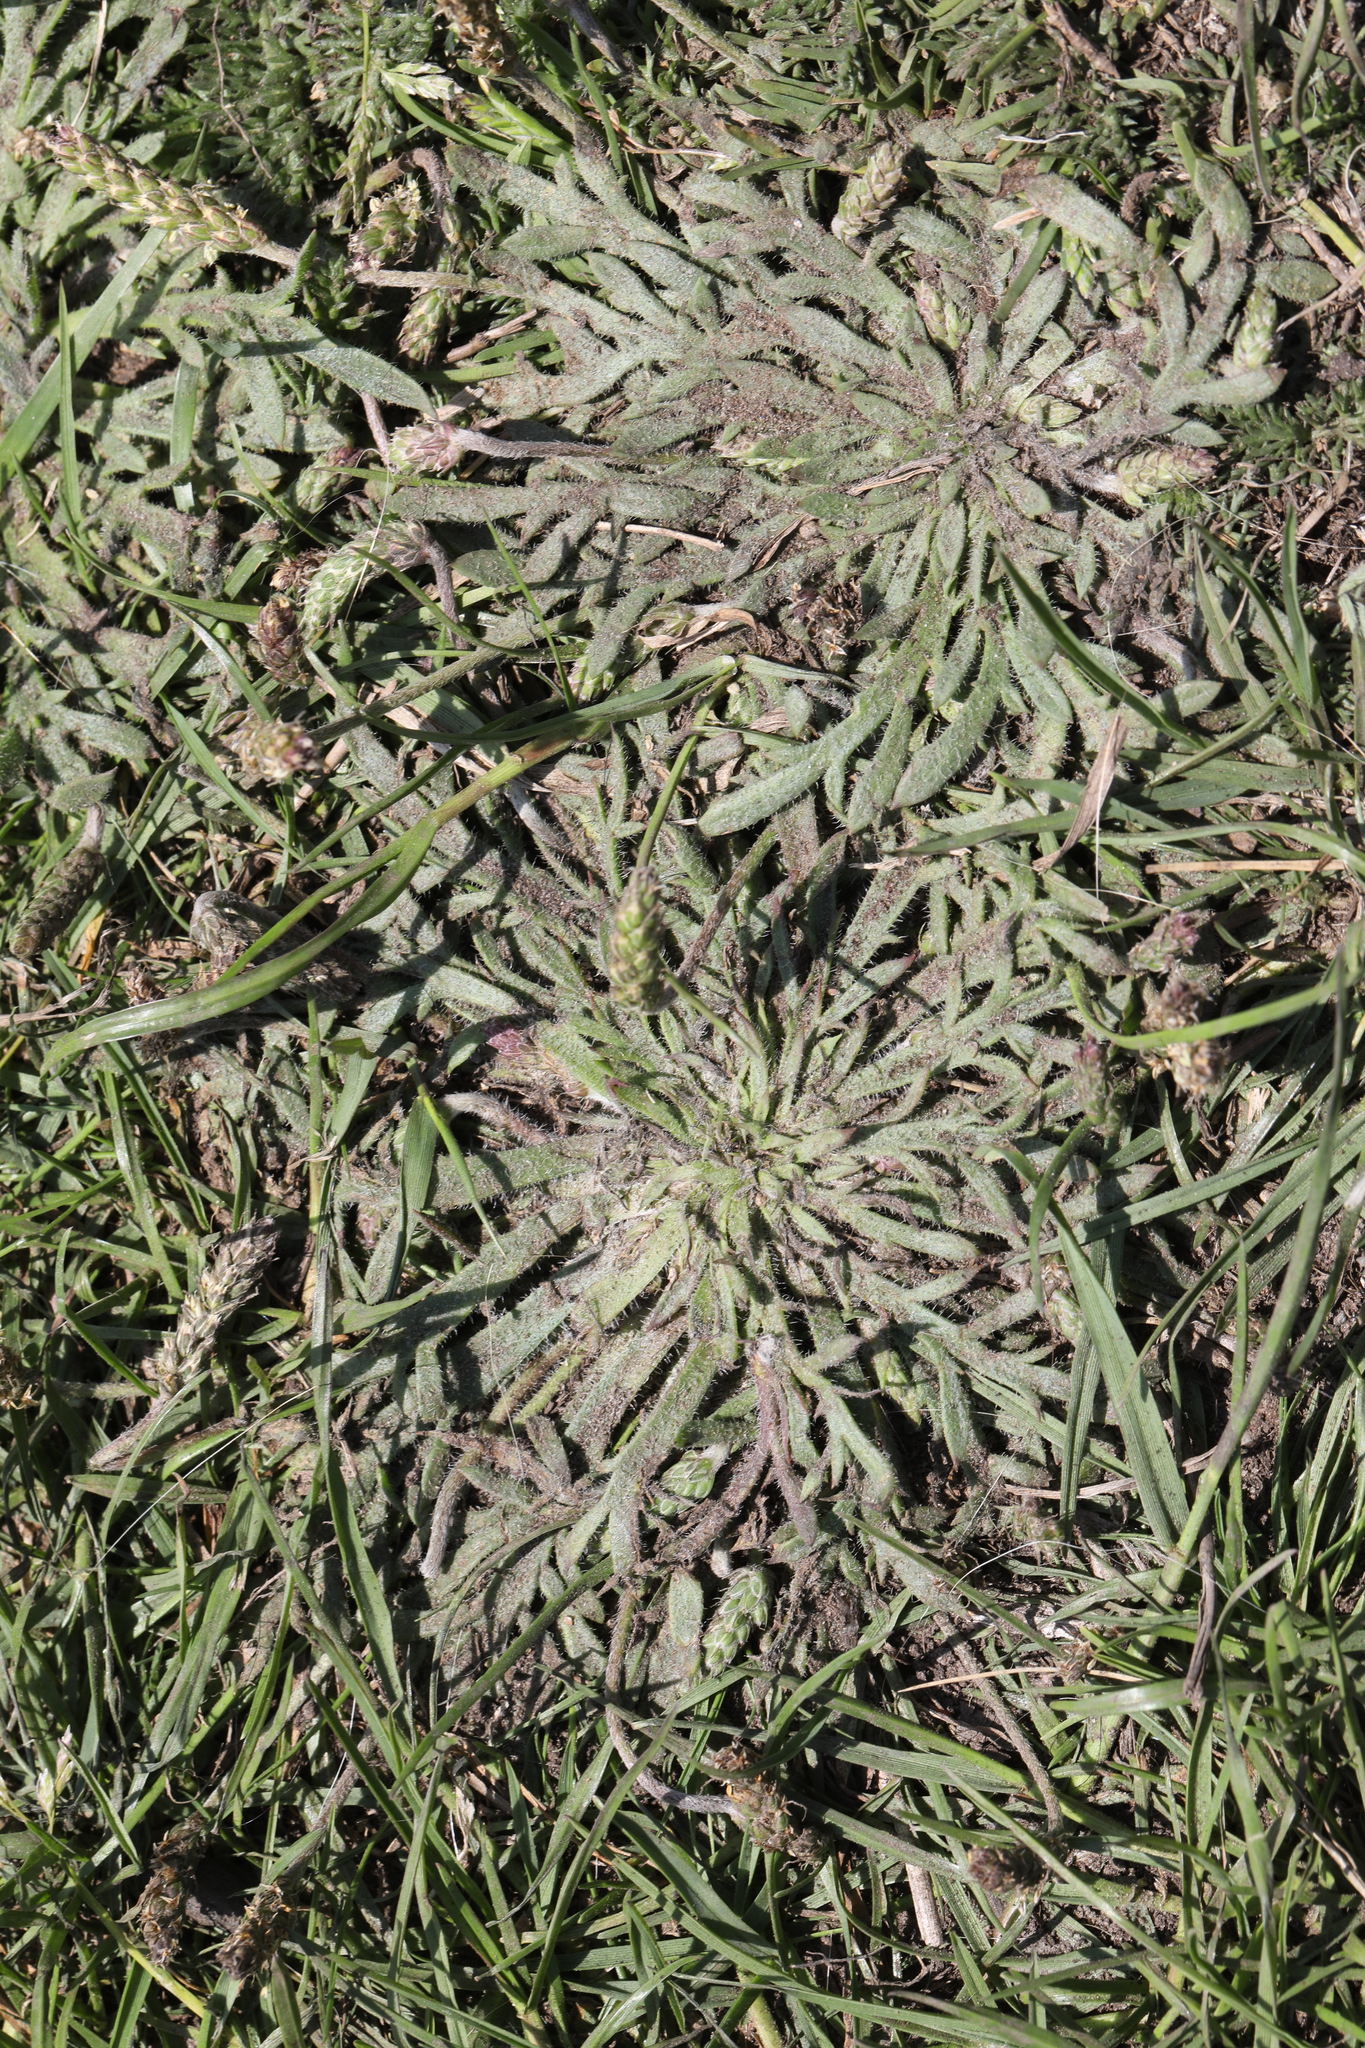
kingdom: Plantae
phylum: Tracheophyta
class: Magnoliopsida
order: Lamiales
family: Plantaginaceae
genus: Plantago
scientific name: Plantago coronopus
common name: Buck's-horn plantain
